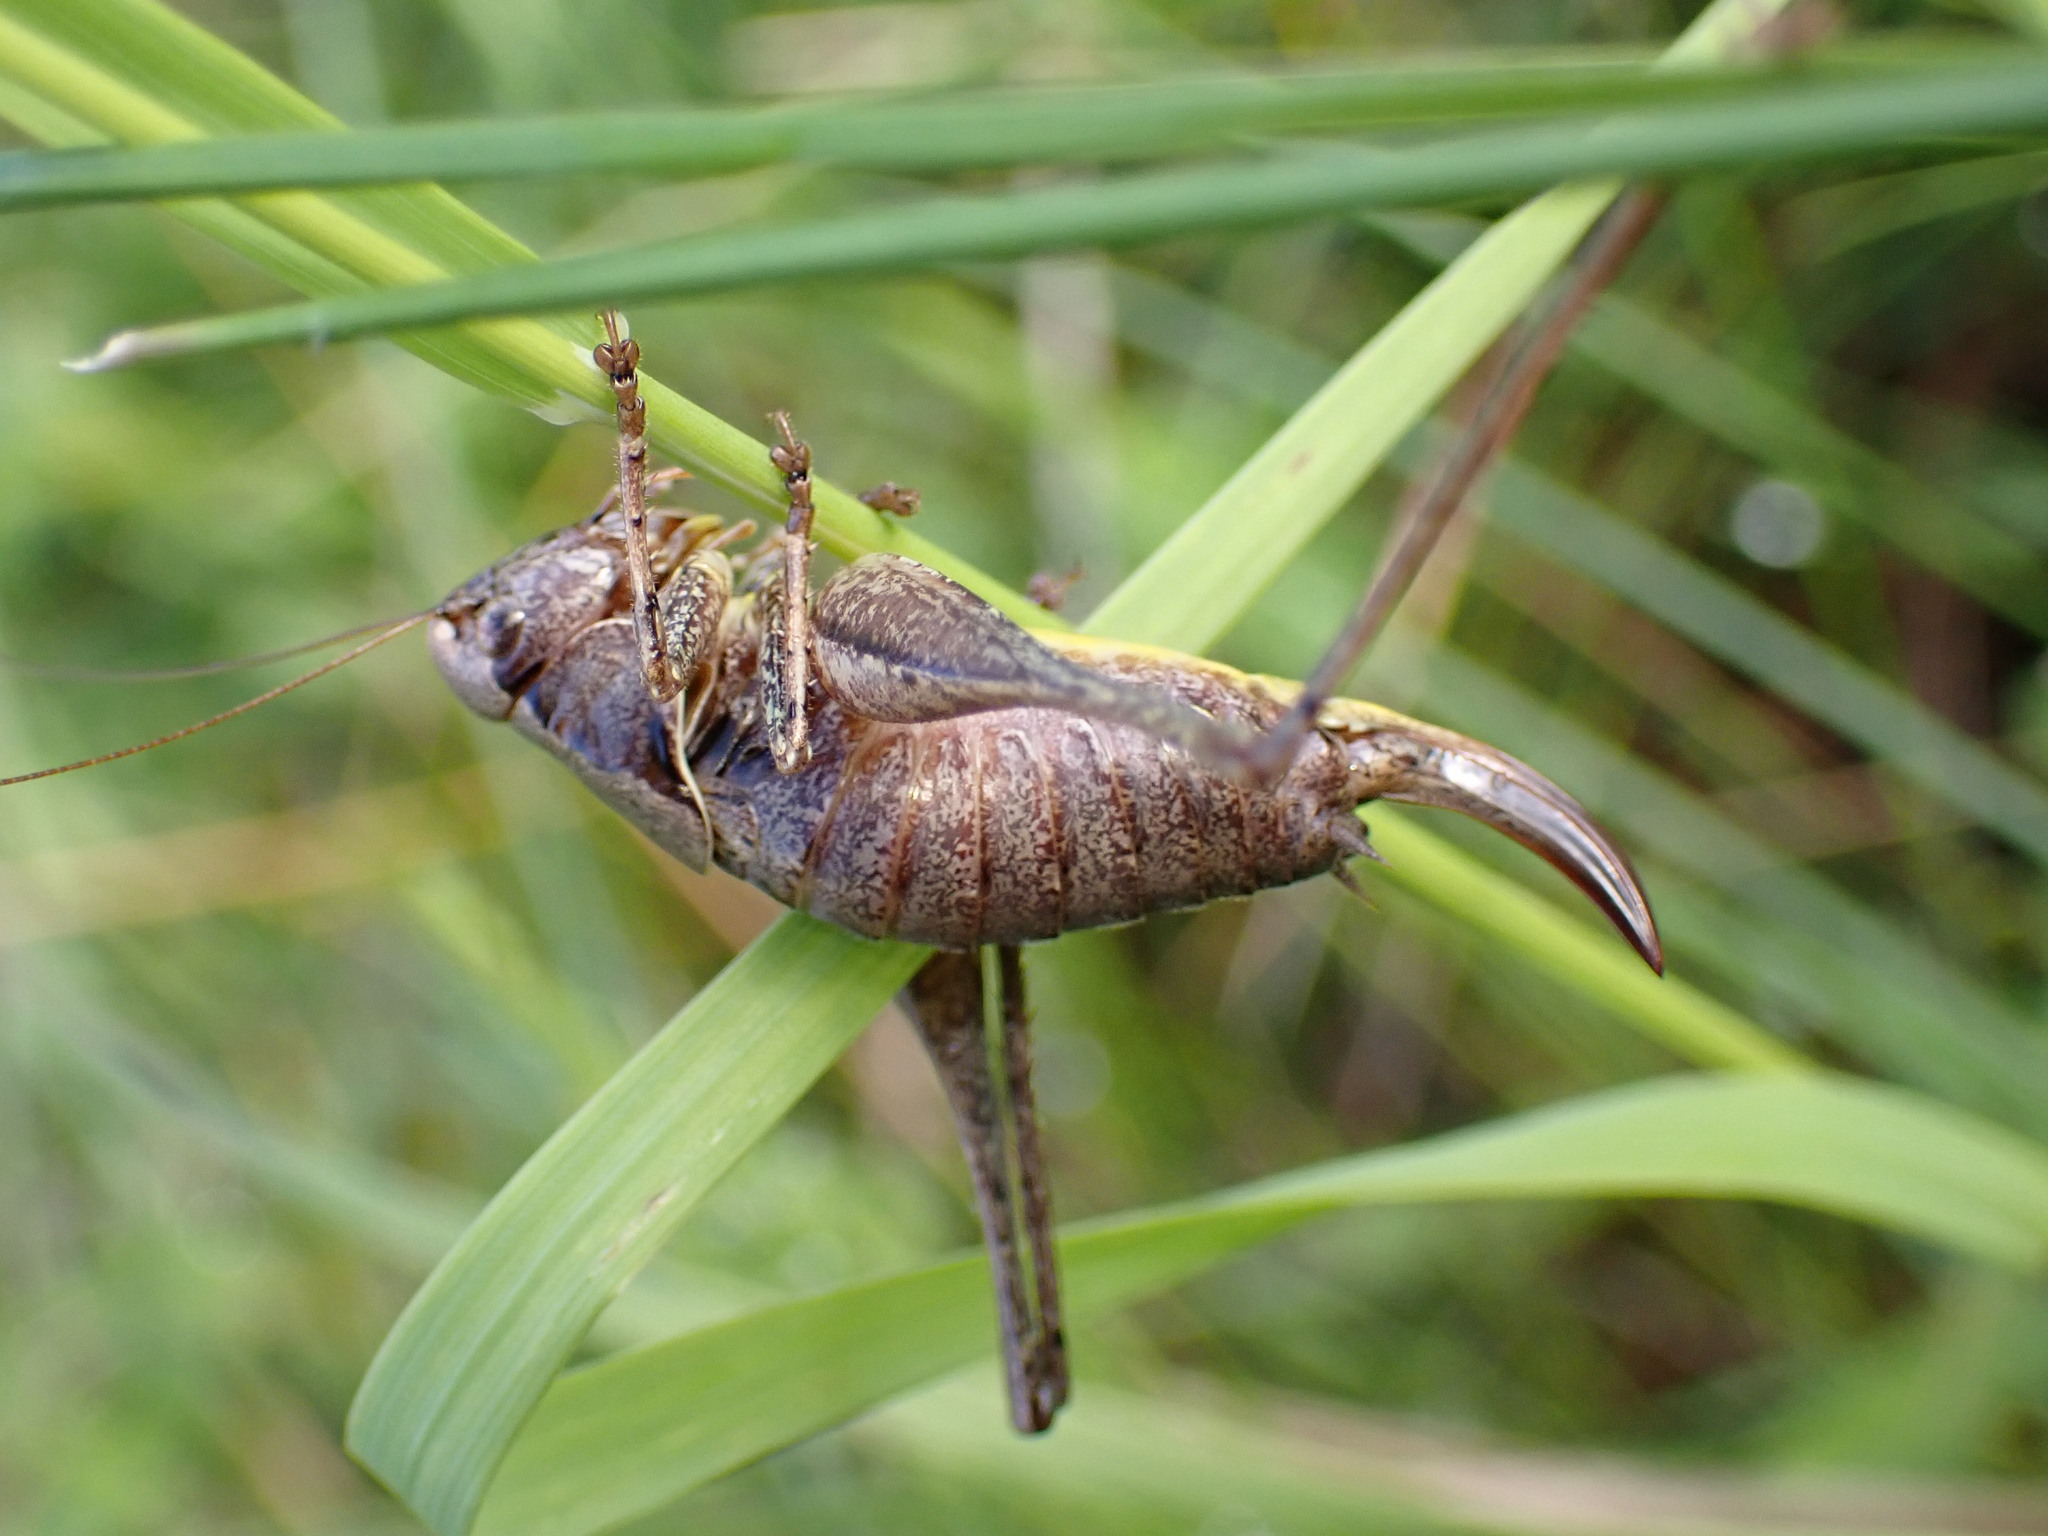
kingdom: Animalia
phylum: Arthropoda
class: Insecta
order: Orthoptera
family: Tettigoniidae
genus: Pholidoptera
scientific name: Pholidoptera griseoaptera
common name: Dark bush-cricket
